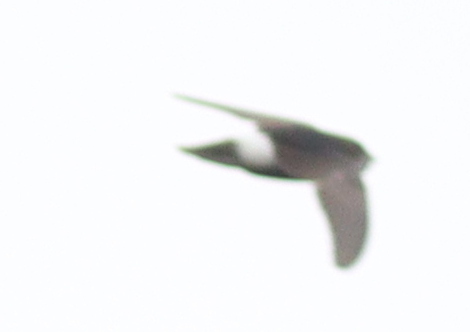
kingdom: Animalia
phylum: Chordata
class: Aves
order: Apodiformes
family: Apodidae
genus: Apus
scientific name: Apus affinis
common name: Little swift
